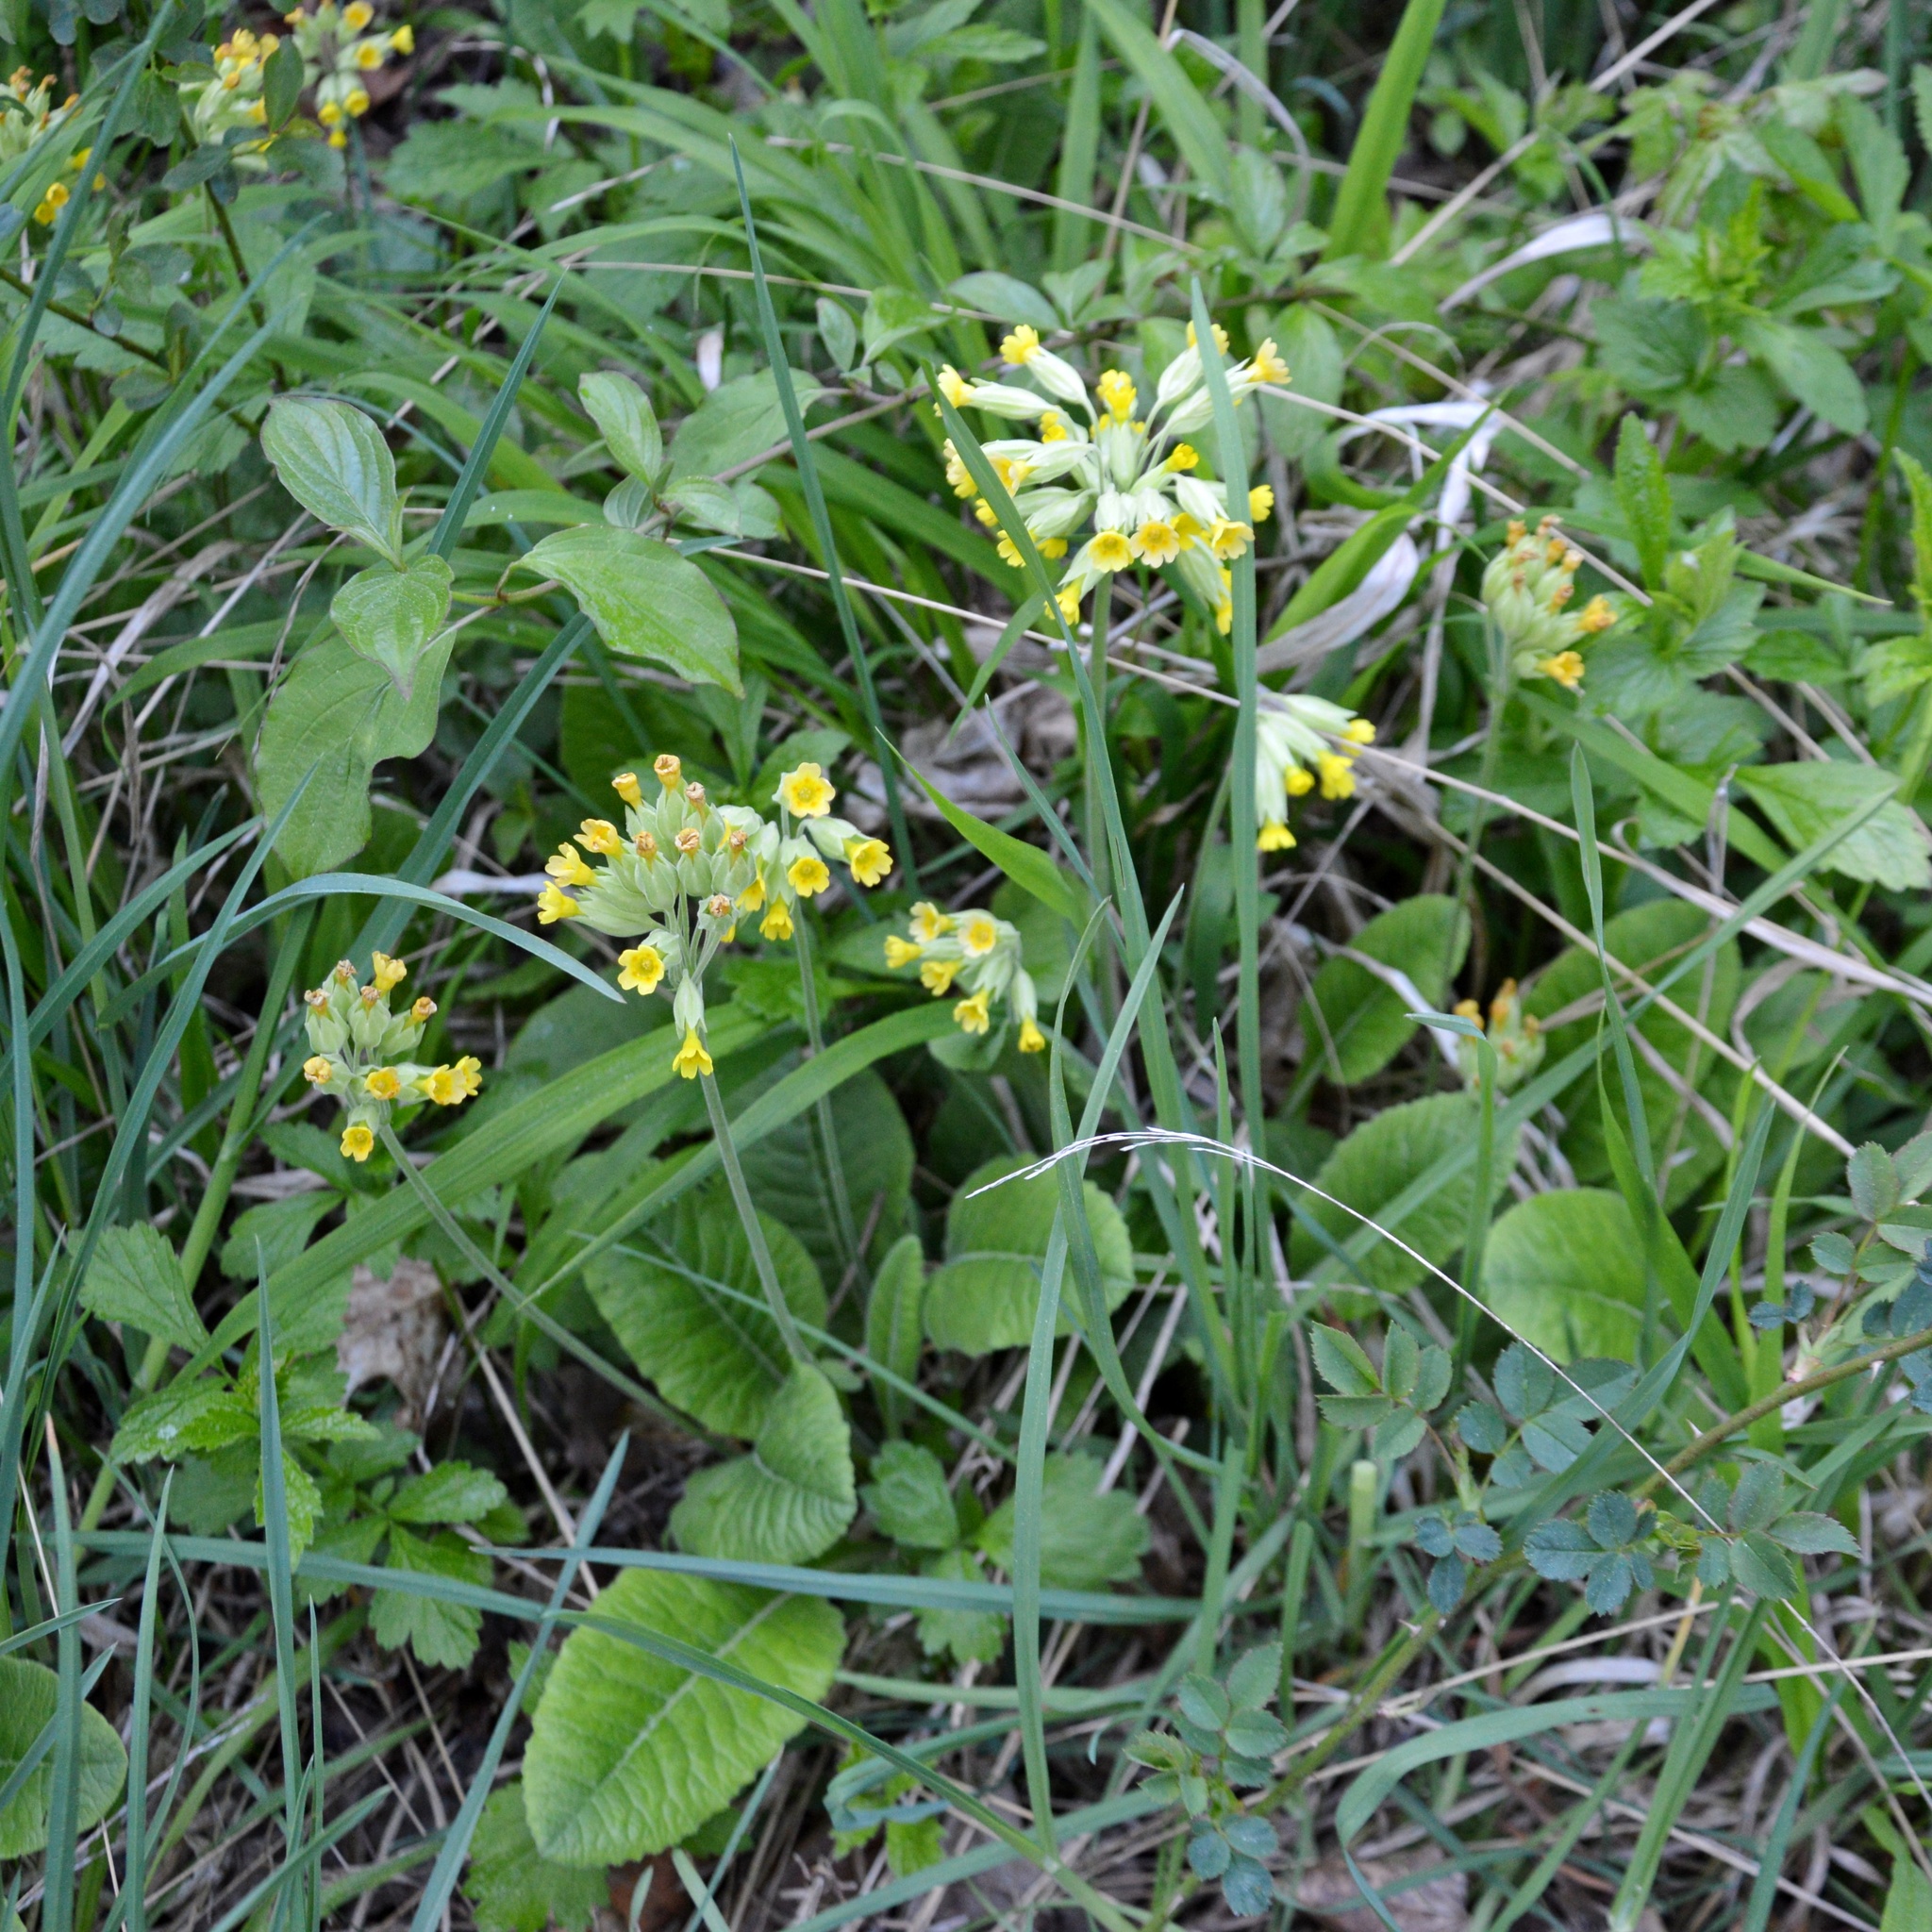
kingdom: Plantae
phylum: Tracheophyta
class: Magnoliopsida
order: Ericales
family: Primulaceae
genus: Primula
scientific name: Primula veris
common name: Cowslip
